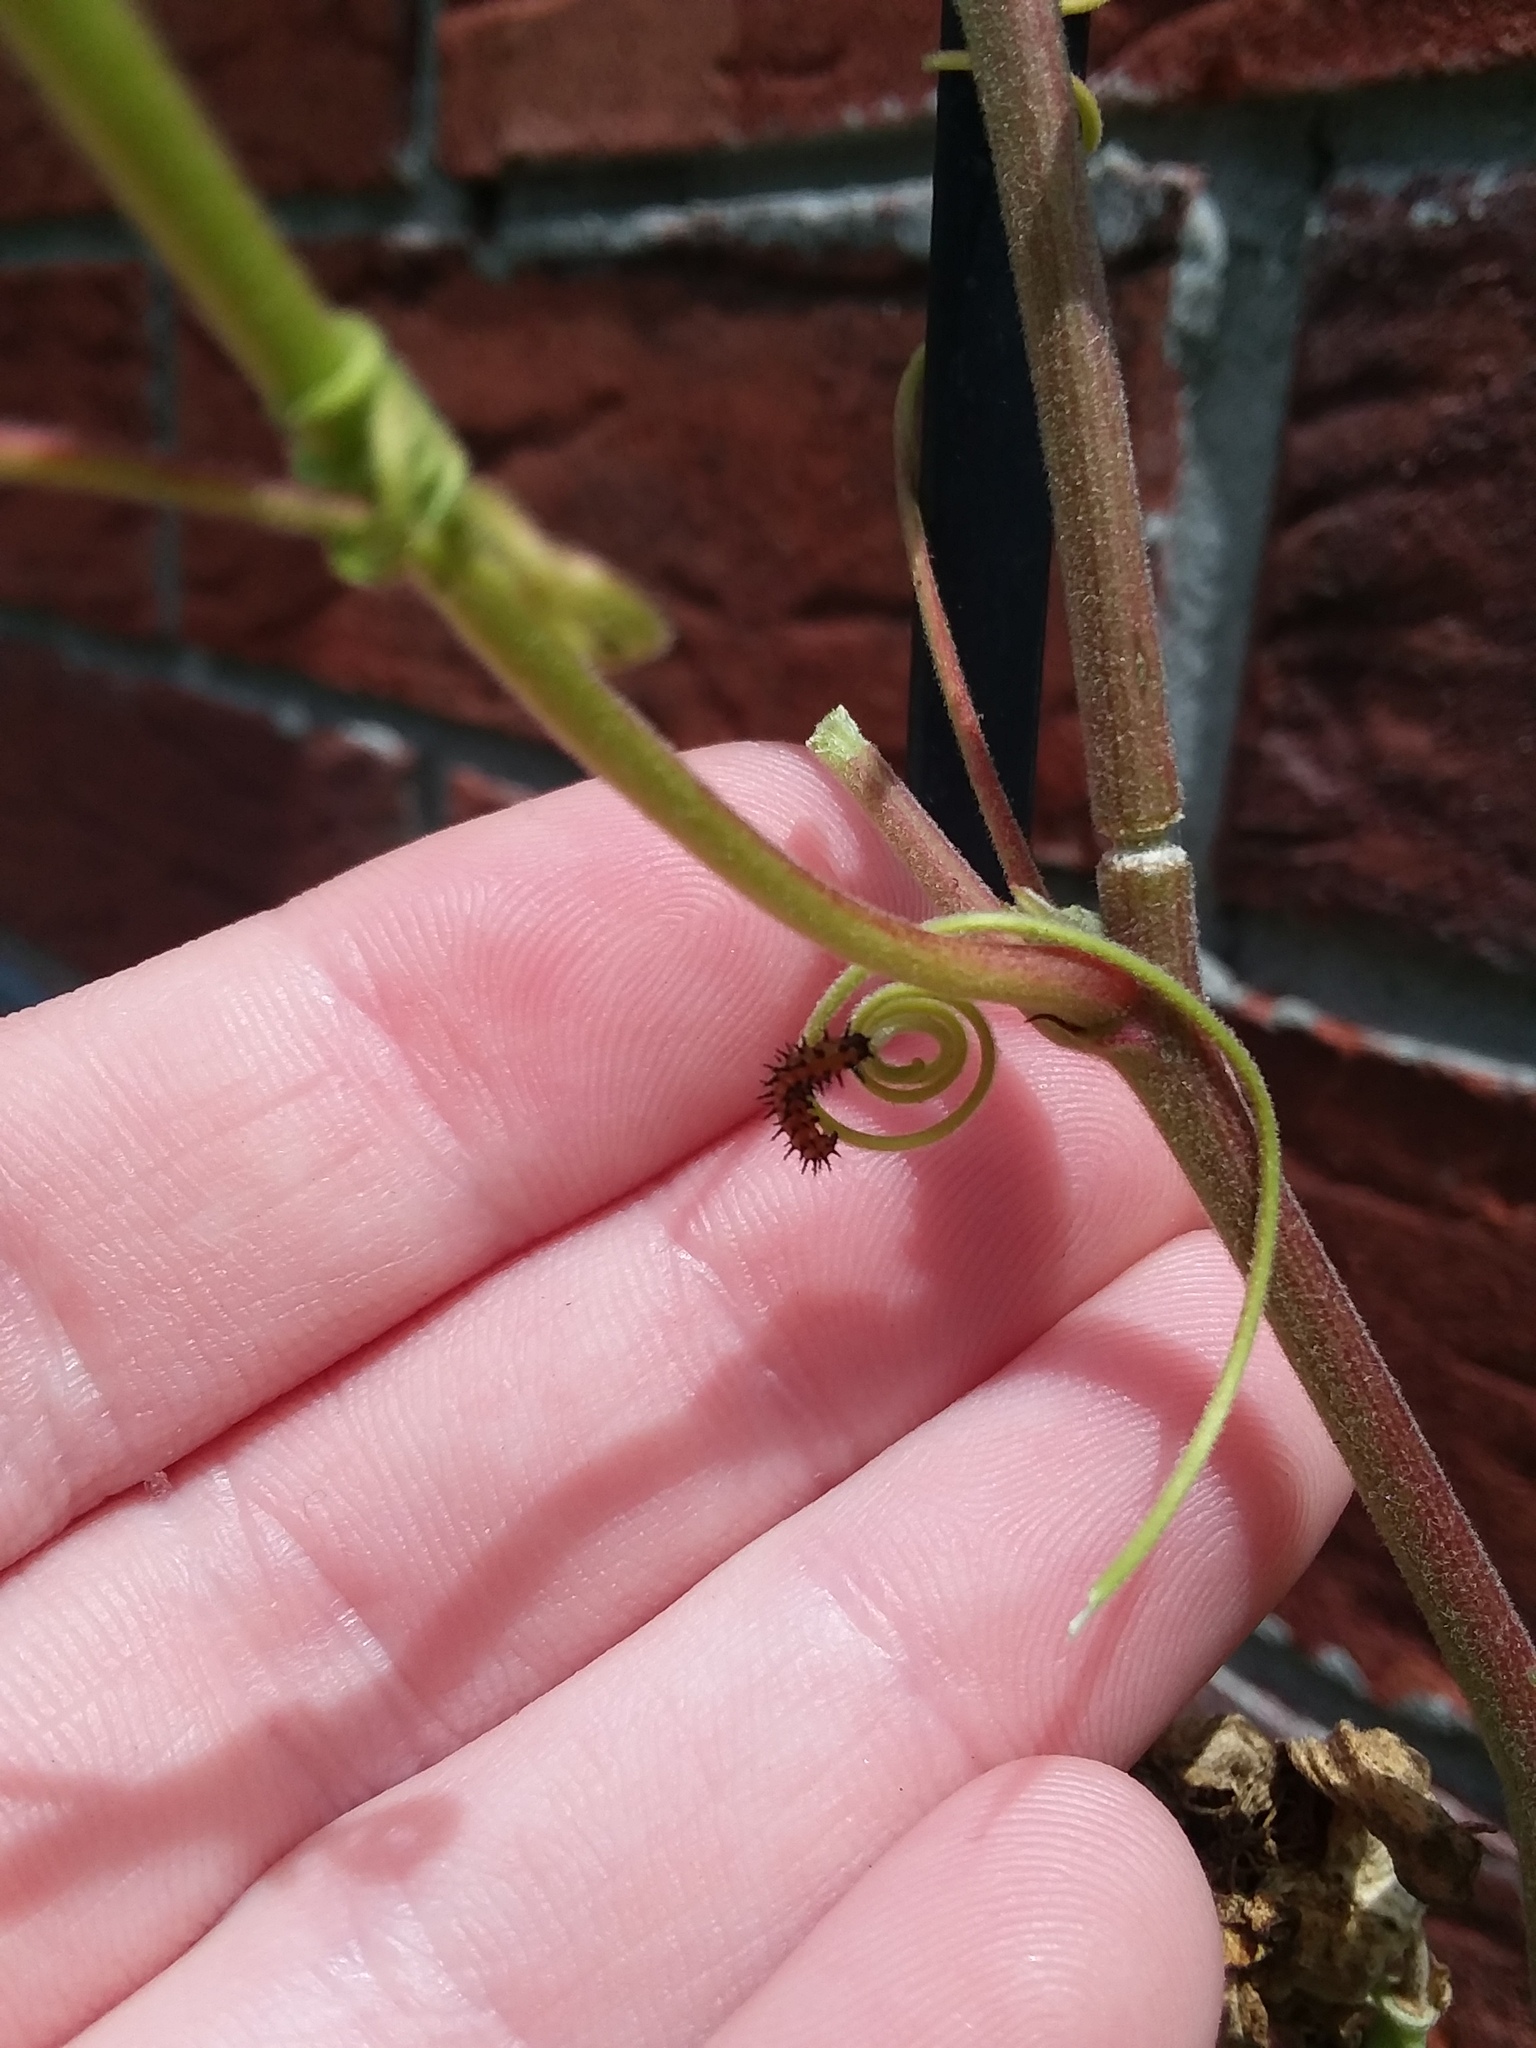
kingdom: Animalia
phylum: Arthropoda
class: Insecta
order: Lepidoptera
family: Nymphalidae
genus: Dione
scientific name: Dione vanillae
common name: Gulf fritillary
